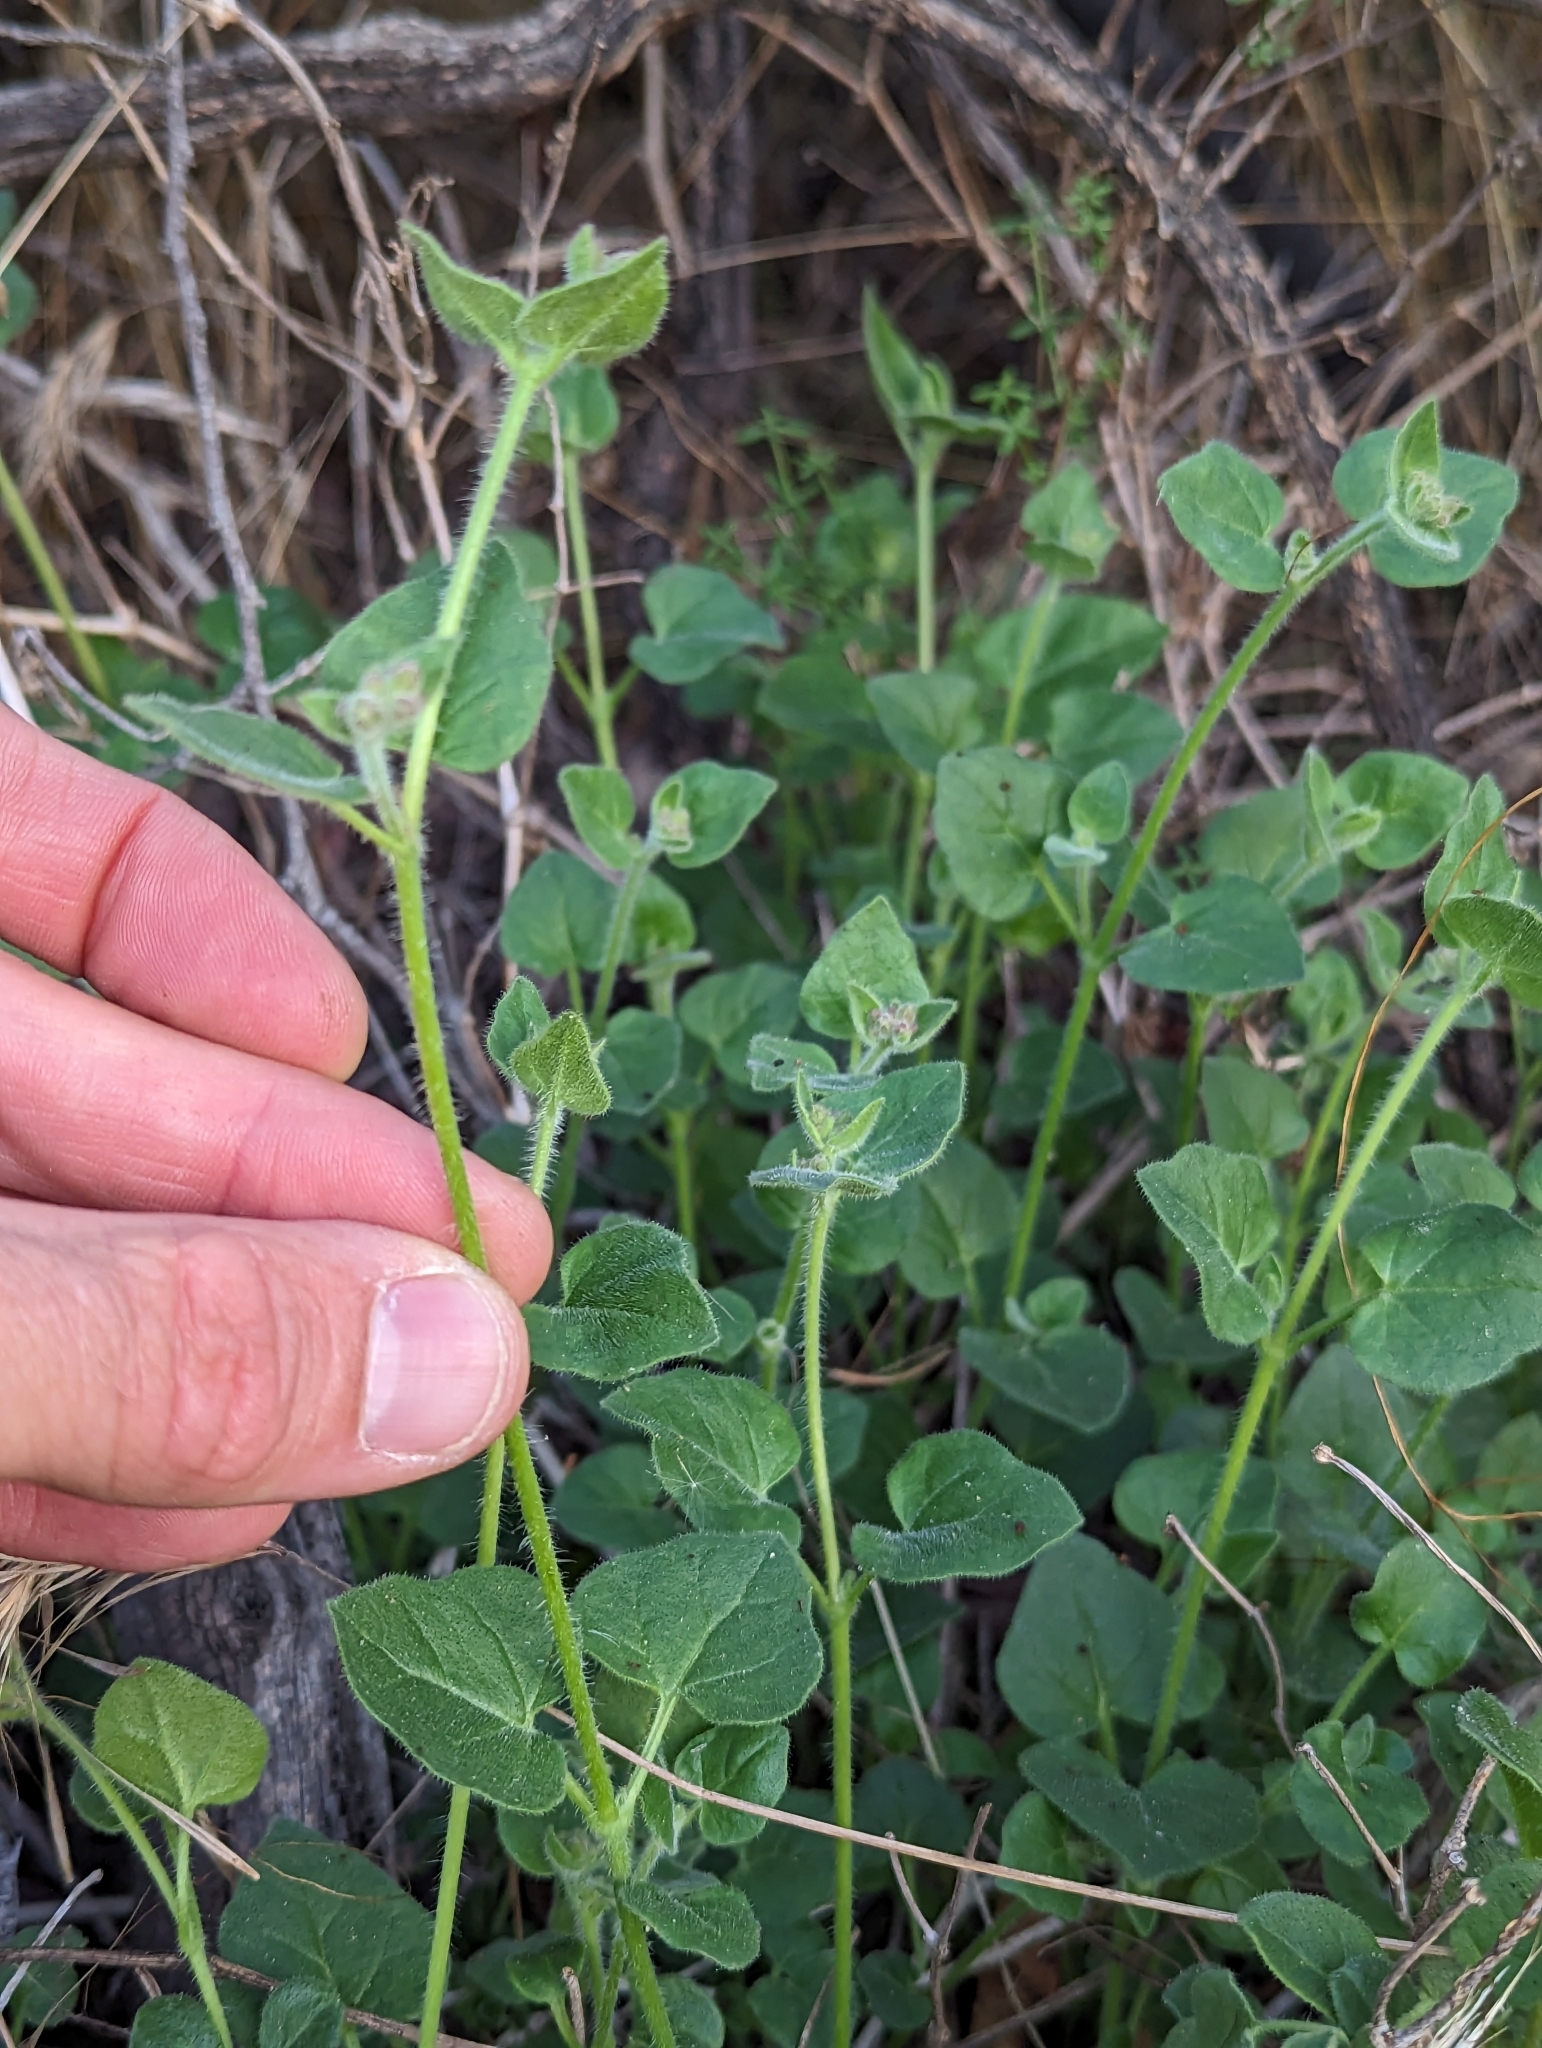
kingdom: Plantae
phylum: Tracheophyta
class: Magnoliopsida
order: Caryophyllales
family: Nyctaginaceae
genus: Mirabilis
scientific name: Mirabilis laevis
